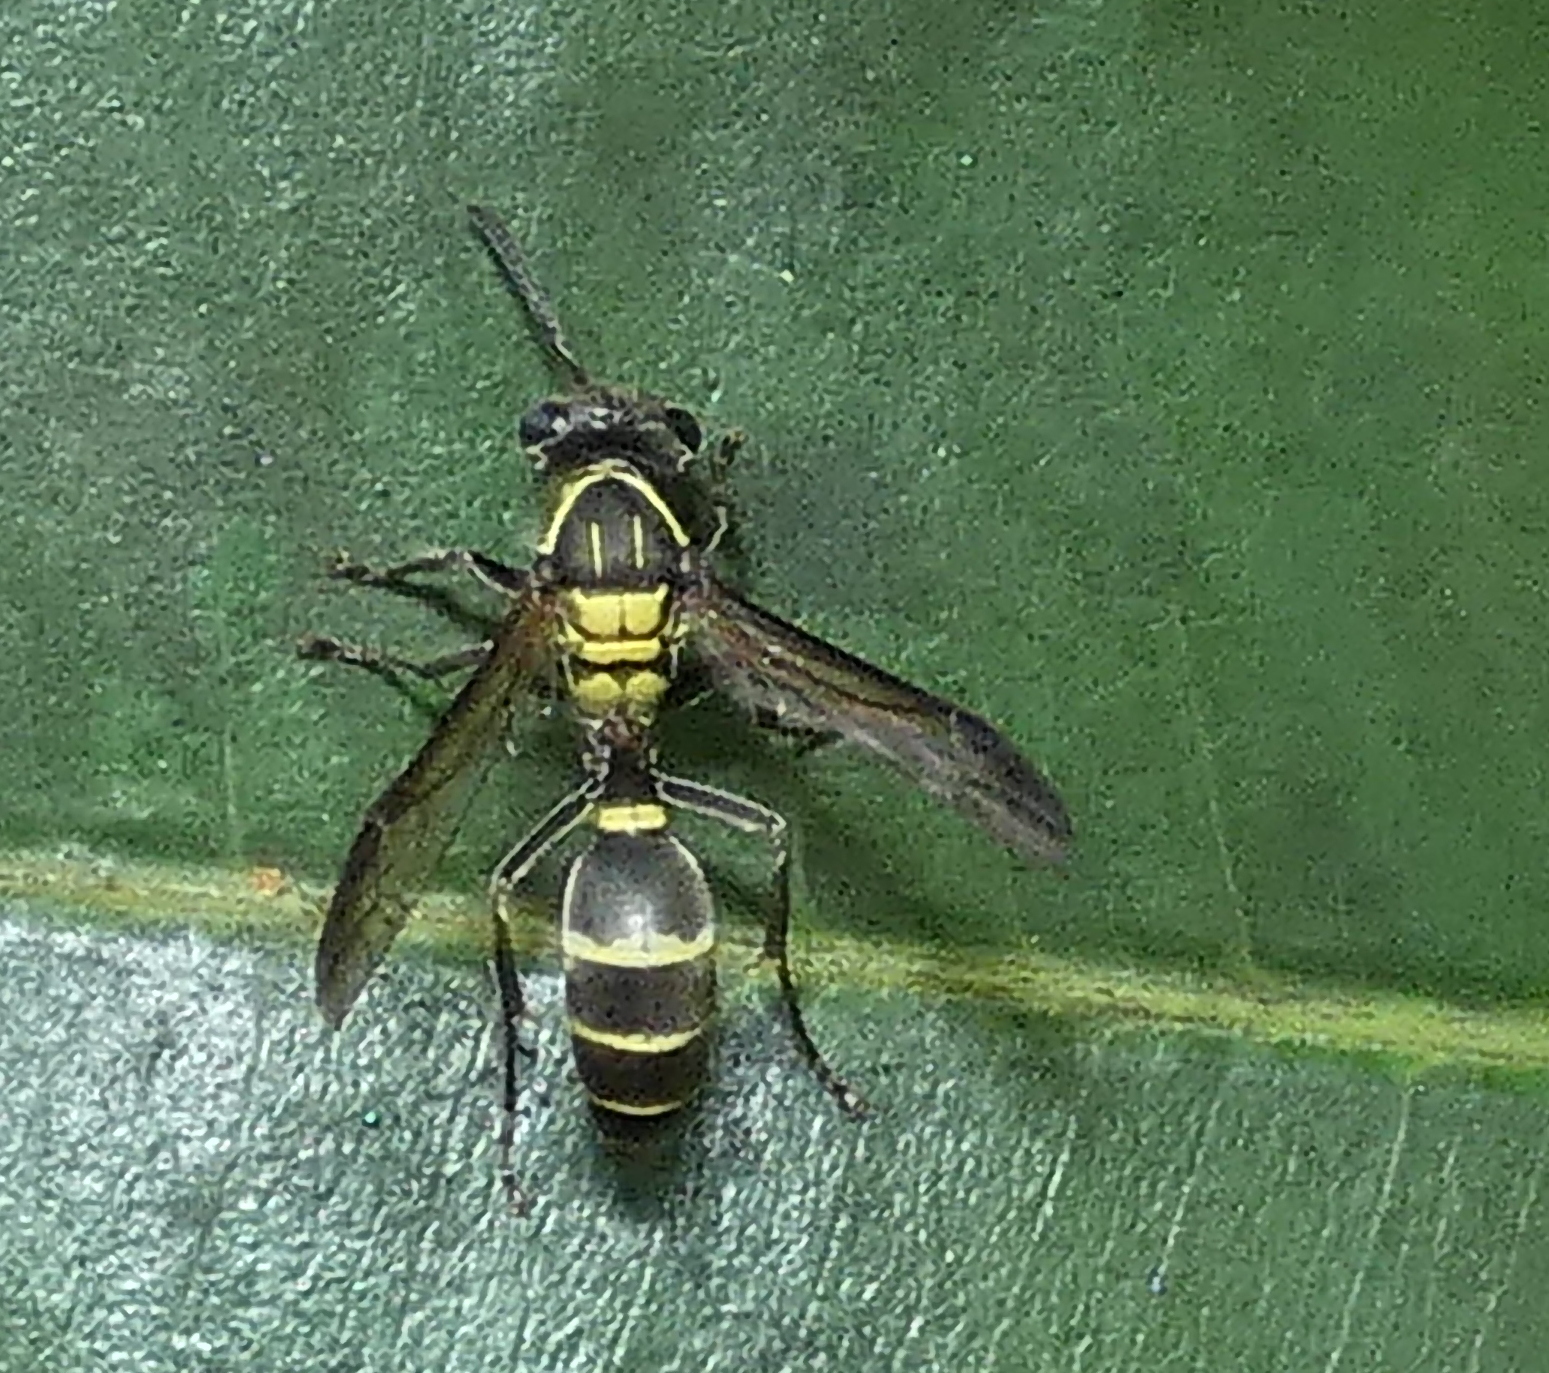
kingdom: Animalia
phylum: Arthropoda
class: Insecta
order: Hymenoptera
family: Eumenidae
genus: Polybia
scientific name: Polybia occidentalis
